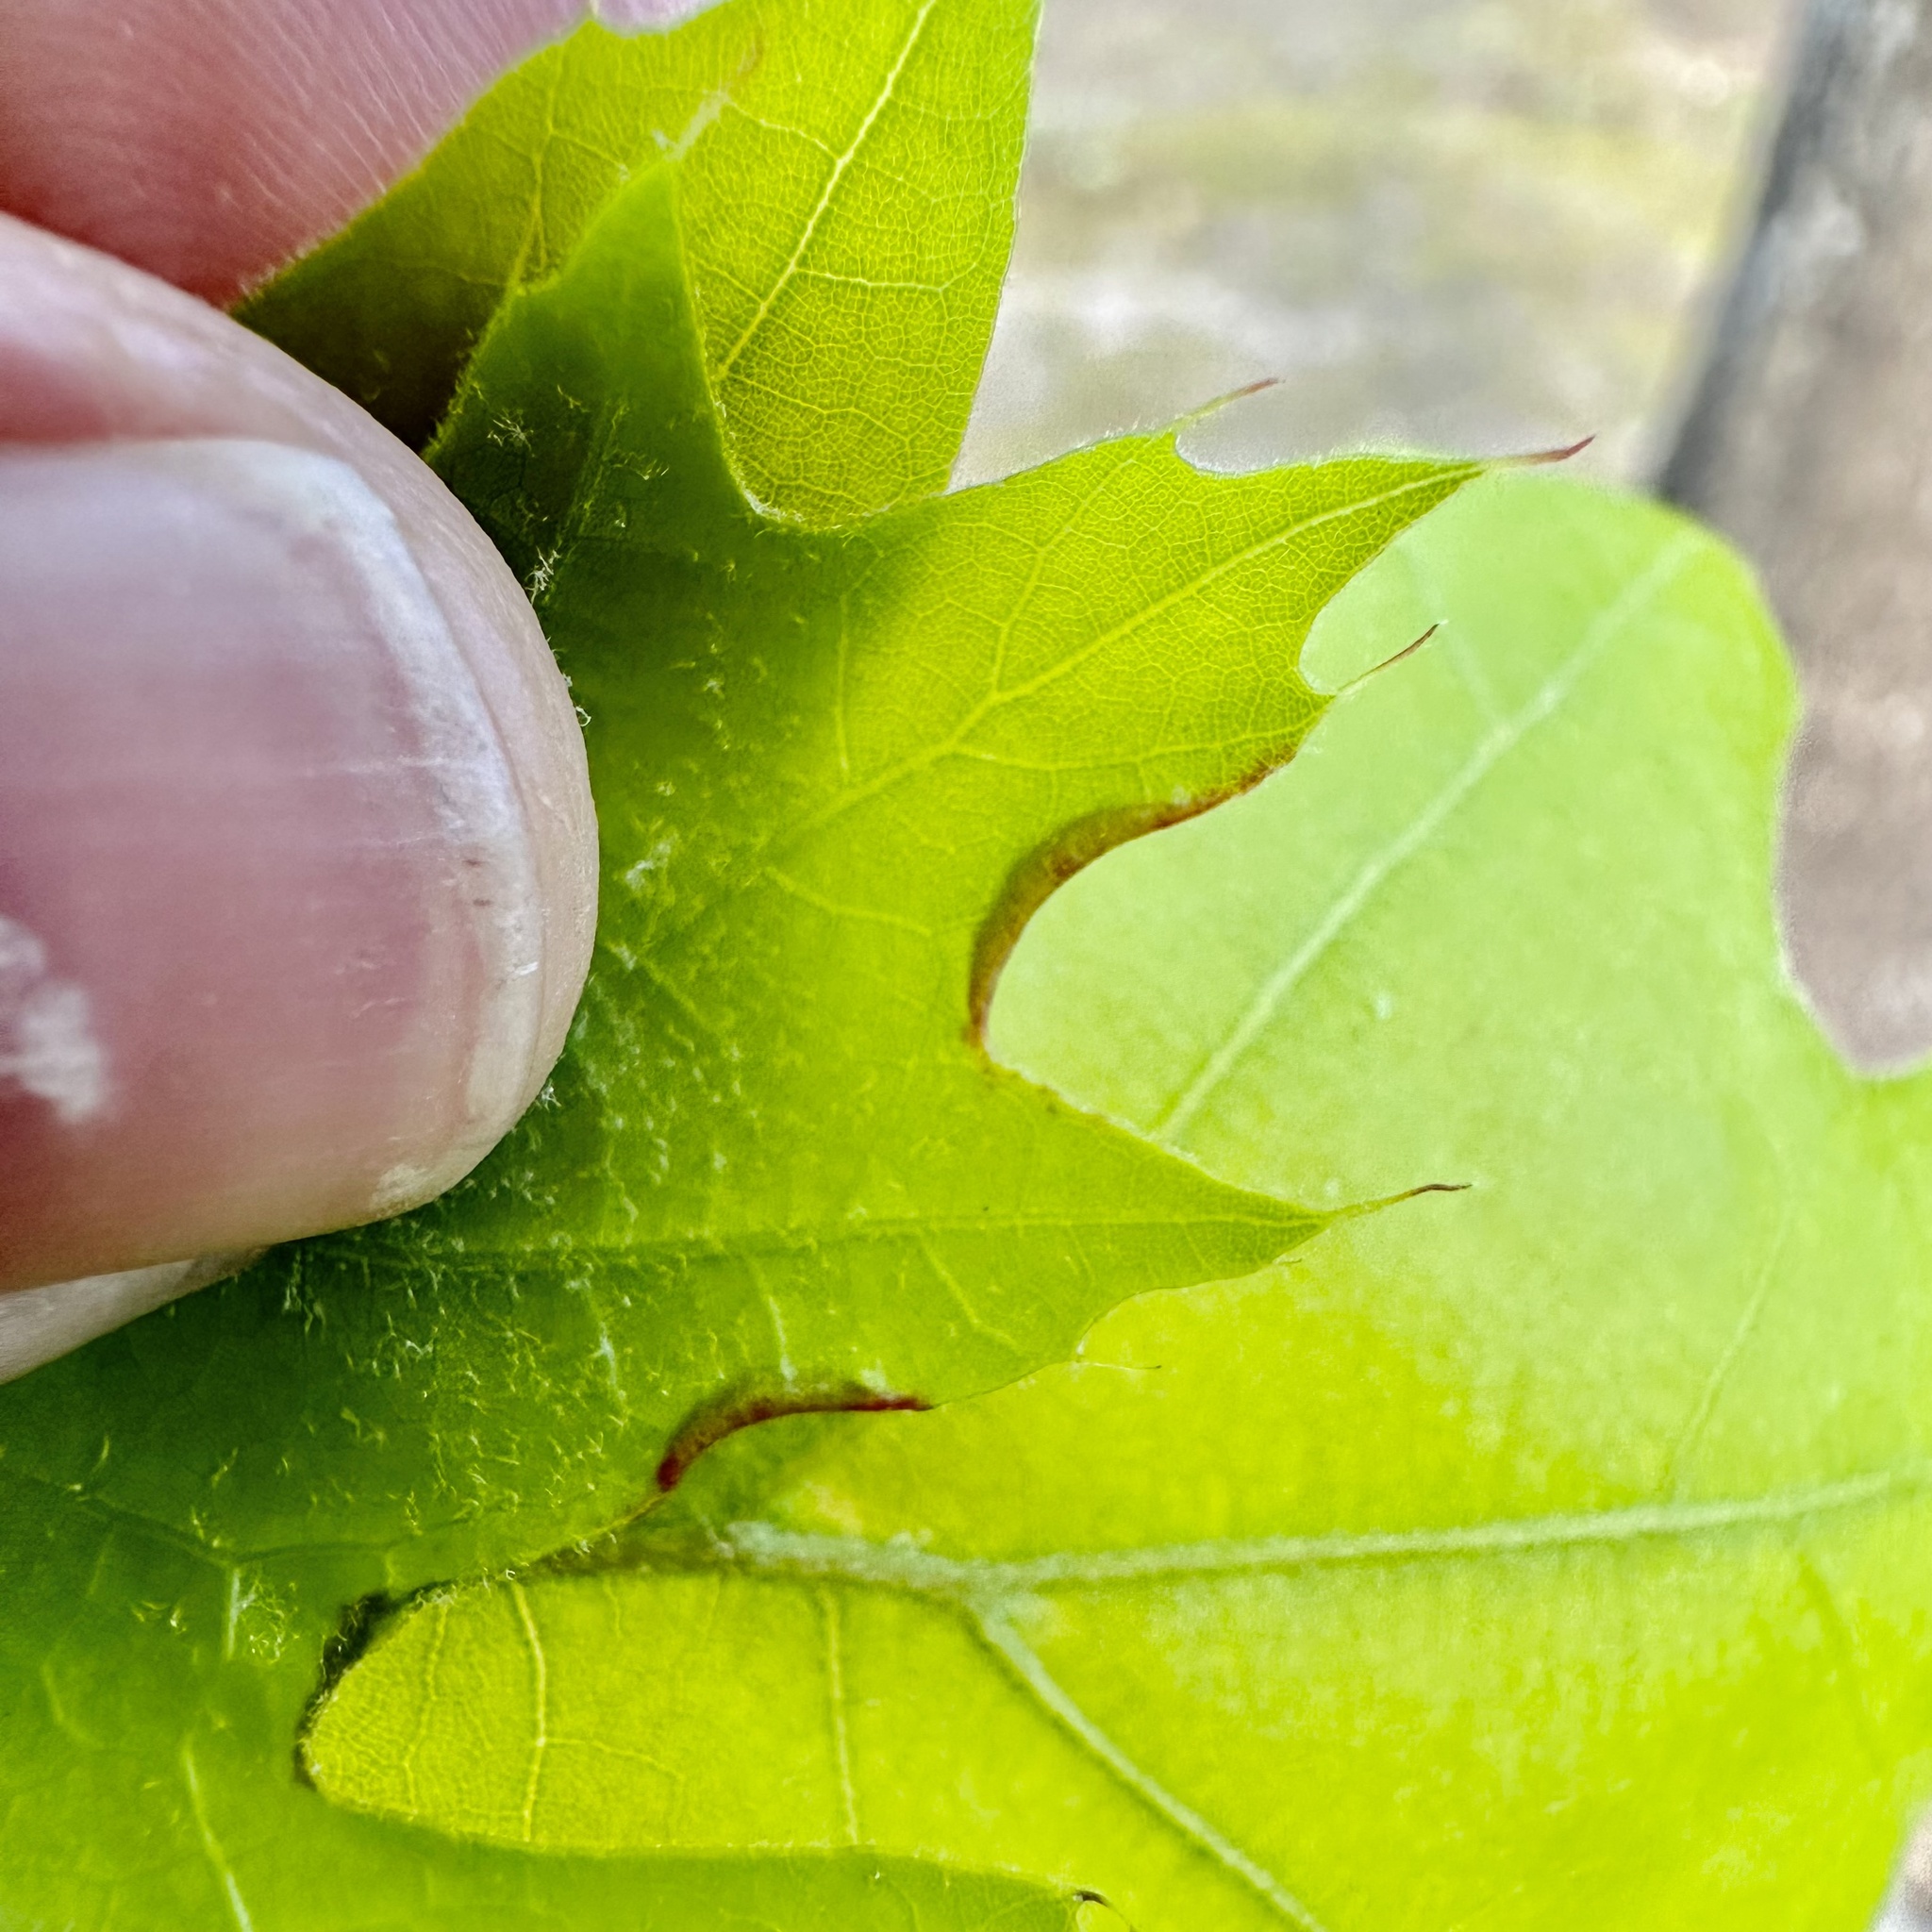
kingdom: Animalia
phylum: Arthropoda
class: Insecta
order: Diptera
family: Cecidomyiidae
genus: Macrodiplosis
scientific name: Macrodiplosis erubescens
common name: Marginal leaf fold gall midge
